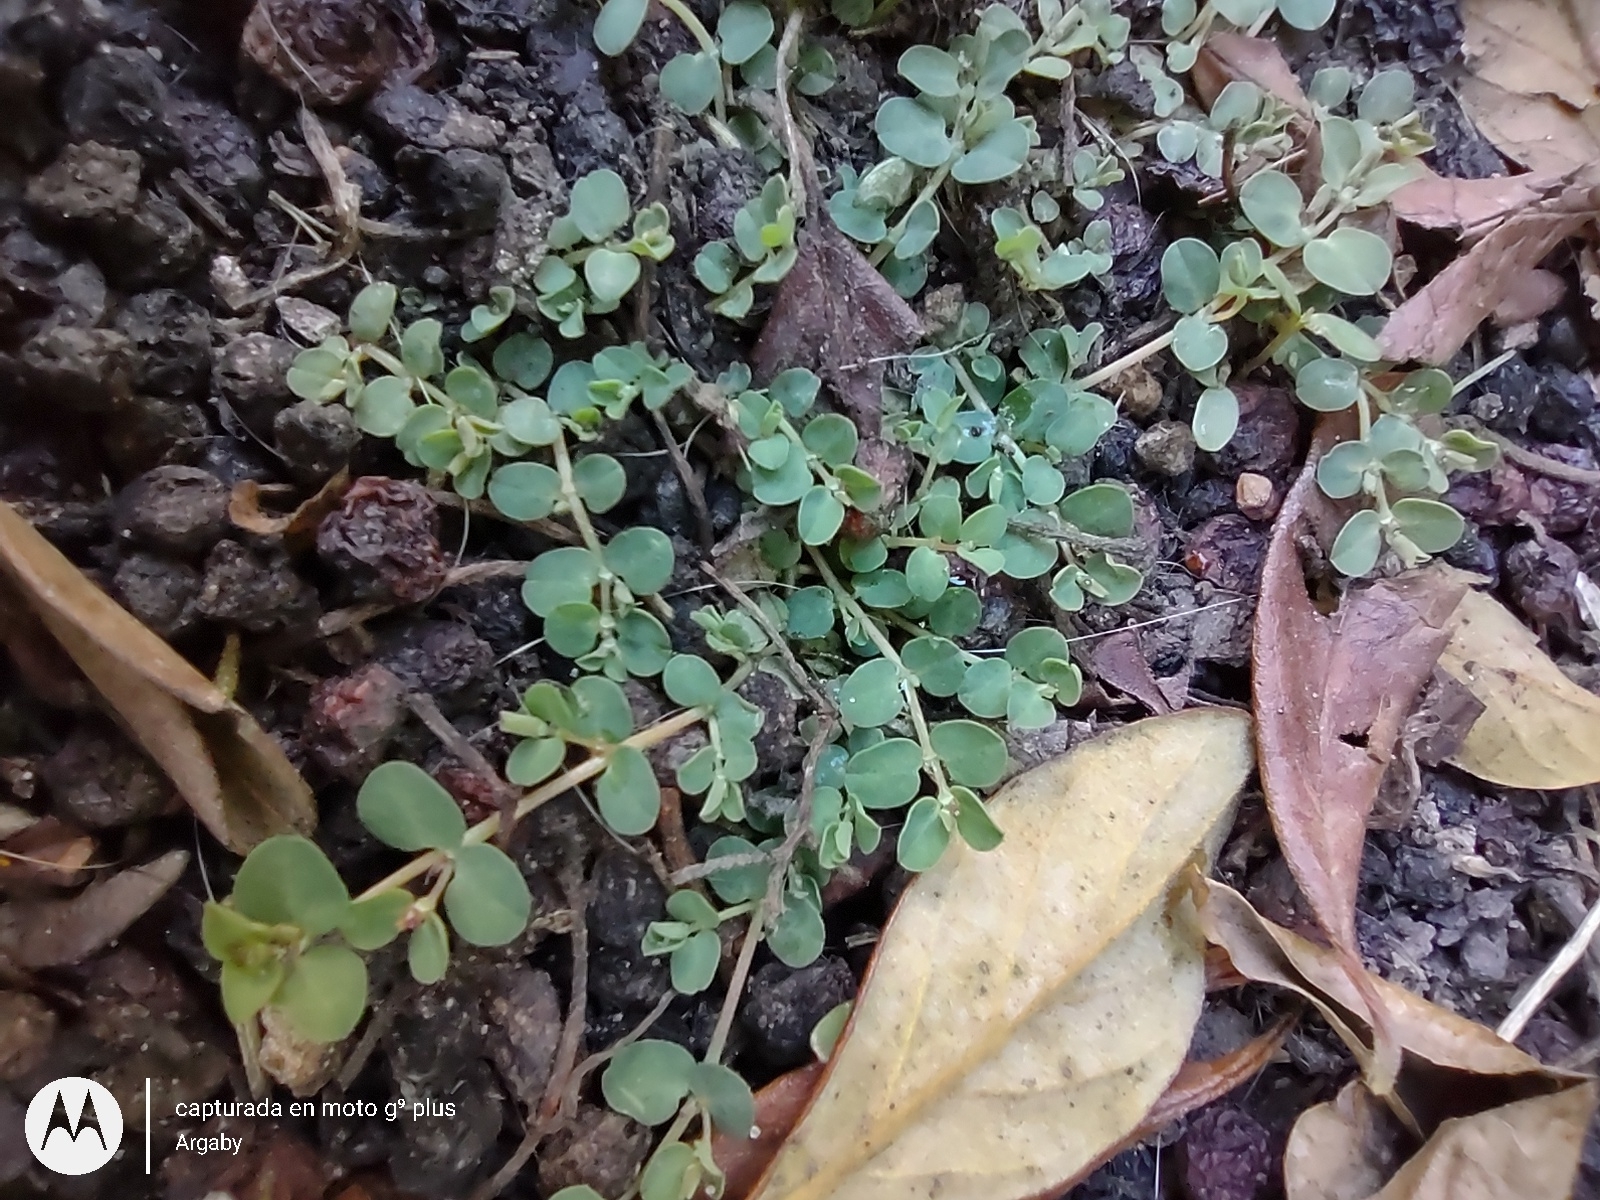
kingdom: Plantae
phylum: Tracheophyta
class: Magnoliopsida
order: Malpighiales
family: Euphorbiaceae
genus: Euphorbia
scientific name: Euphorbia serpens
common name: Matted sandmat
